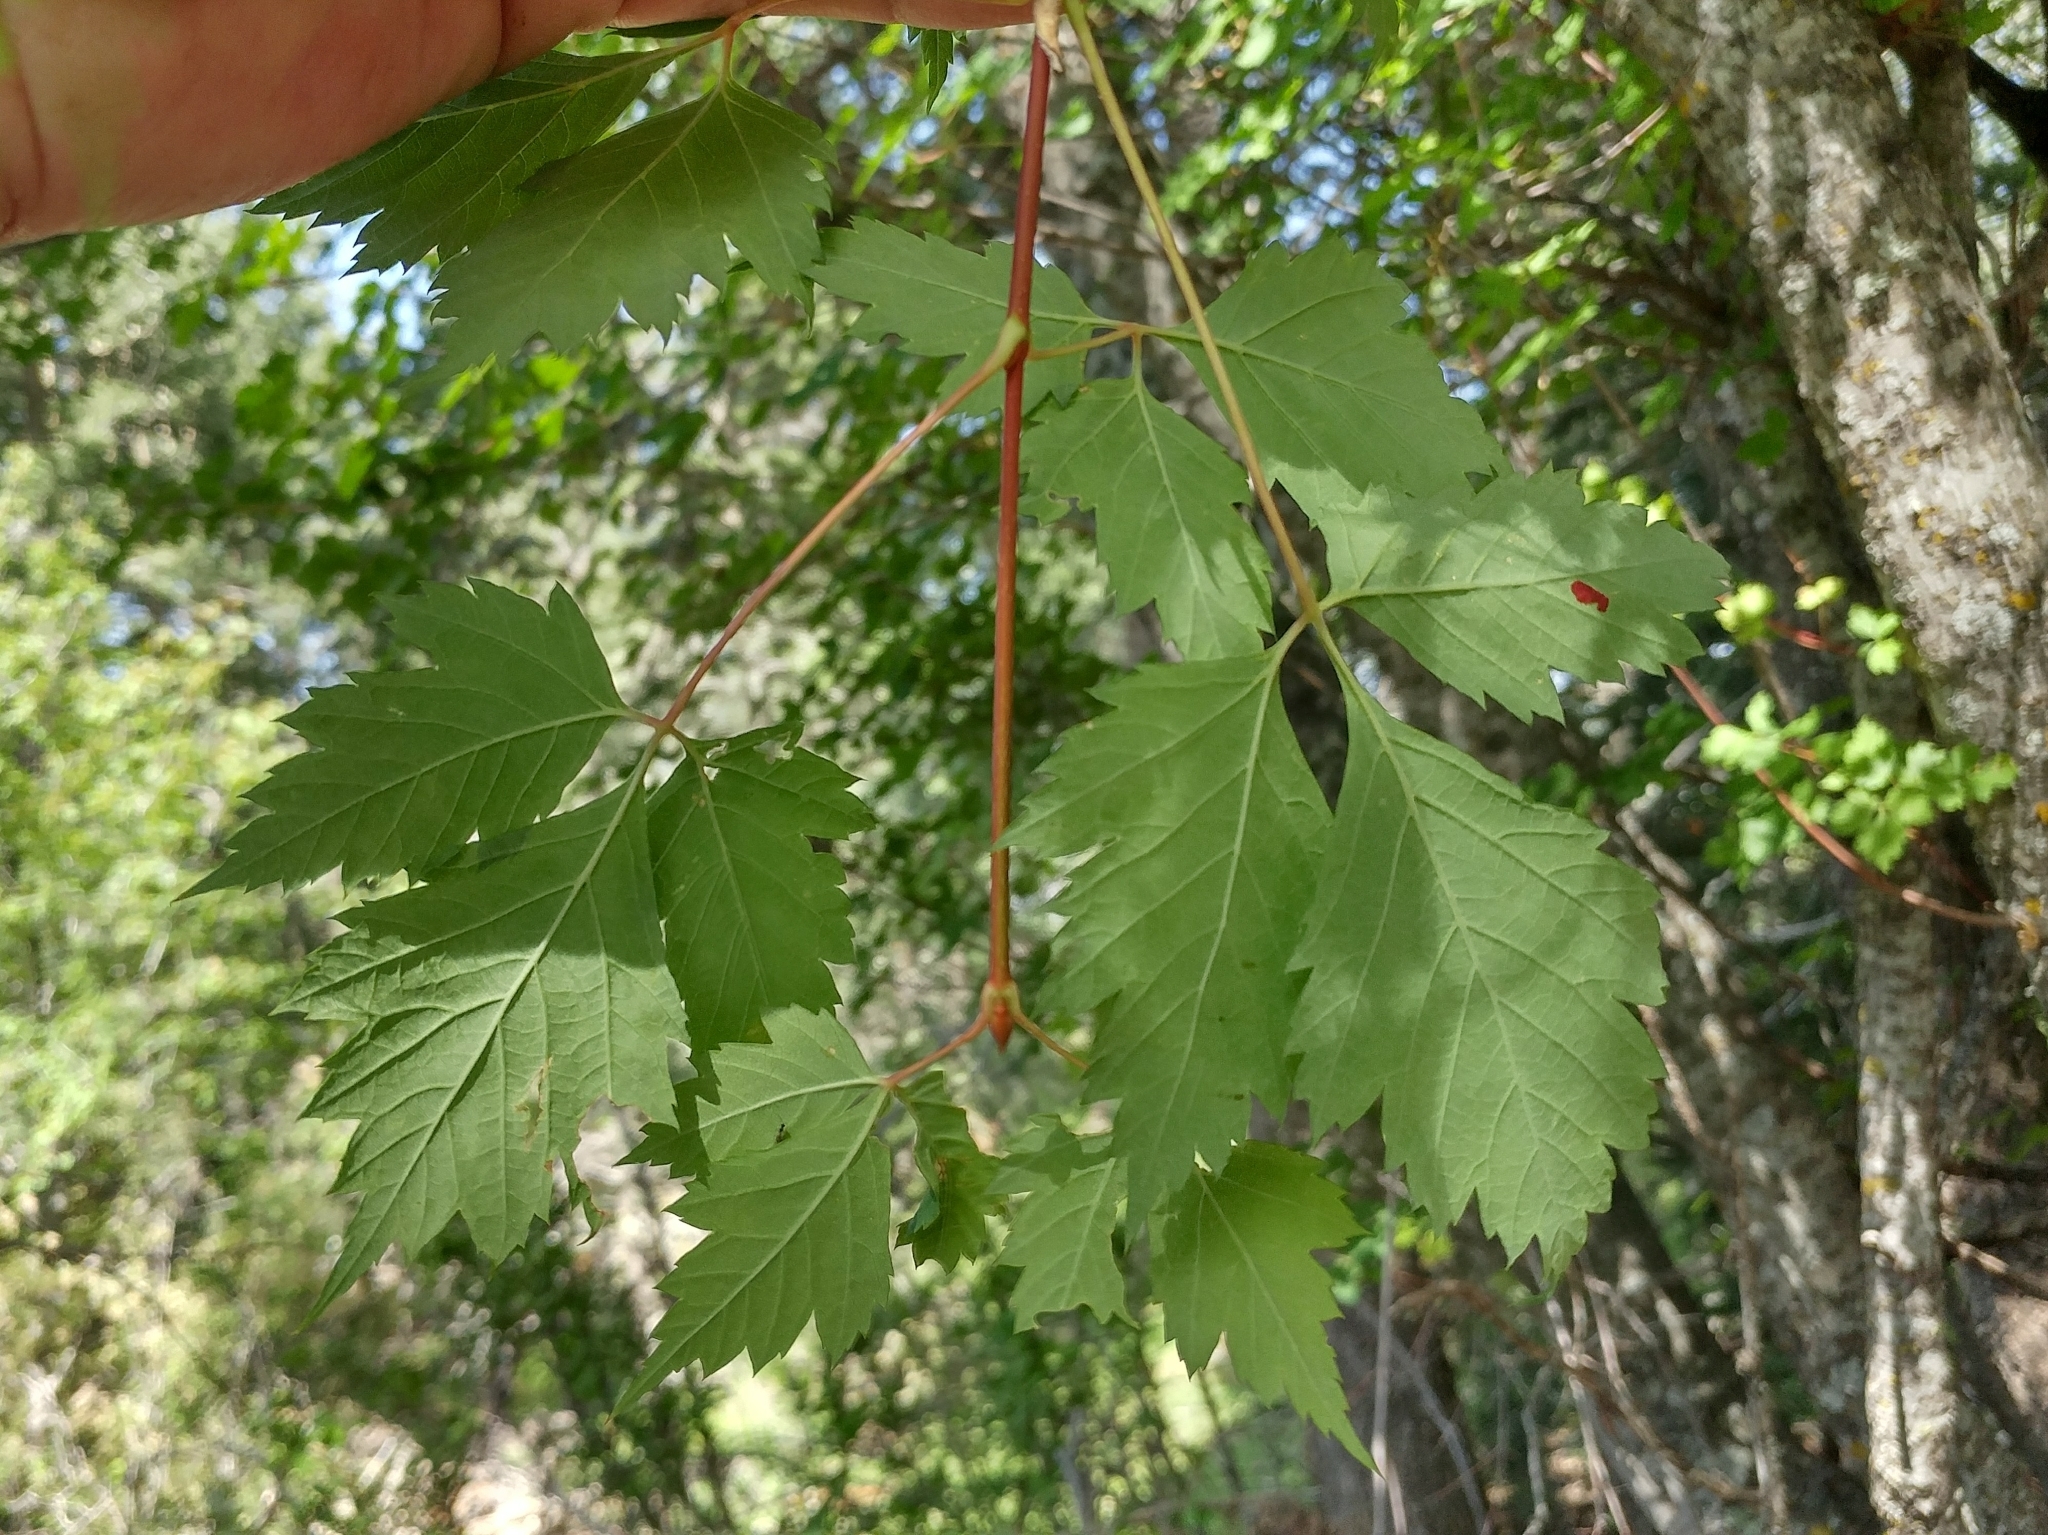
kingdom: Plantae
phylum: Tracheophyta
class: Magnoliopsida
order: Sapindales
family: Sapindaceae
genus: Acer
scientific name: Acer glabrum
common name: Rocky mountain maple
